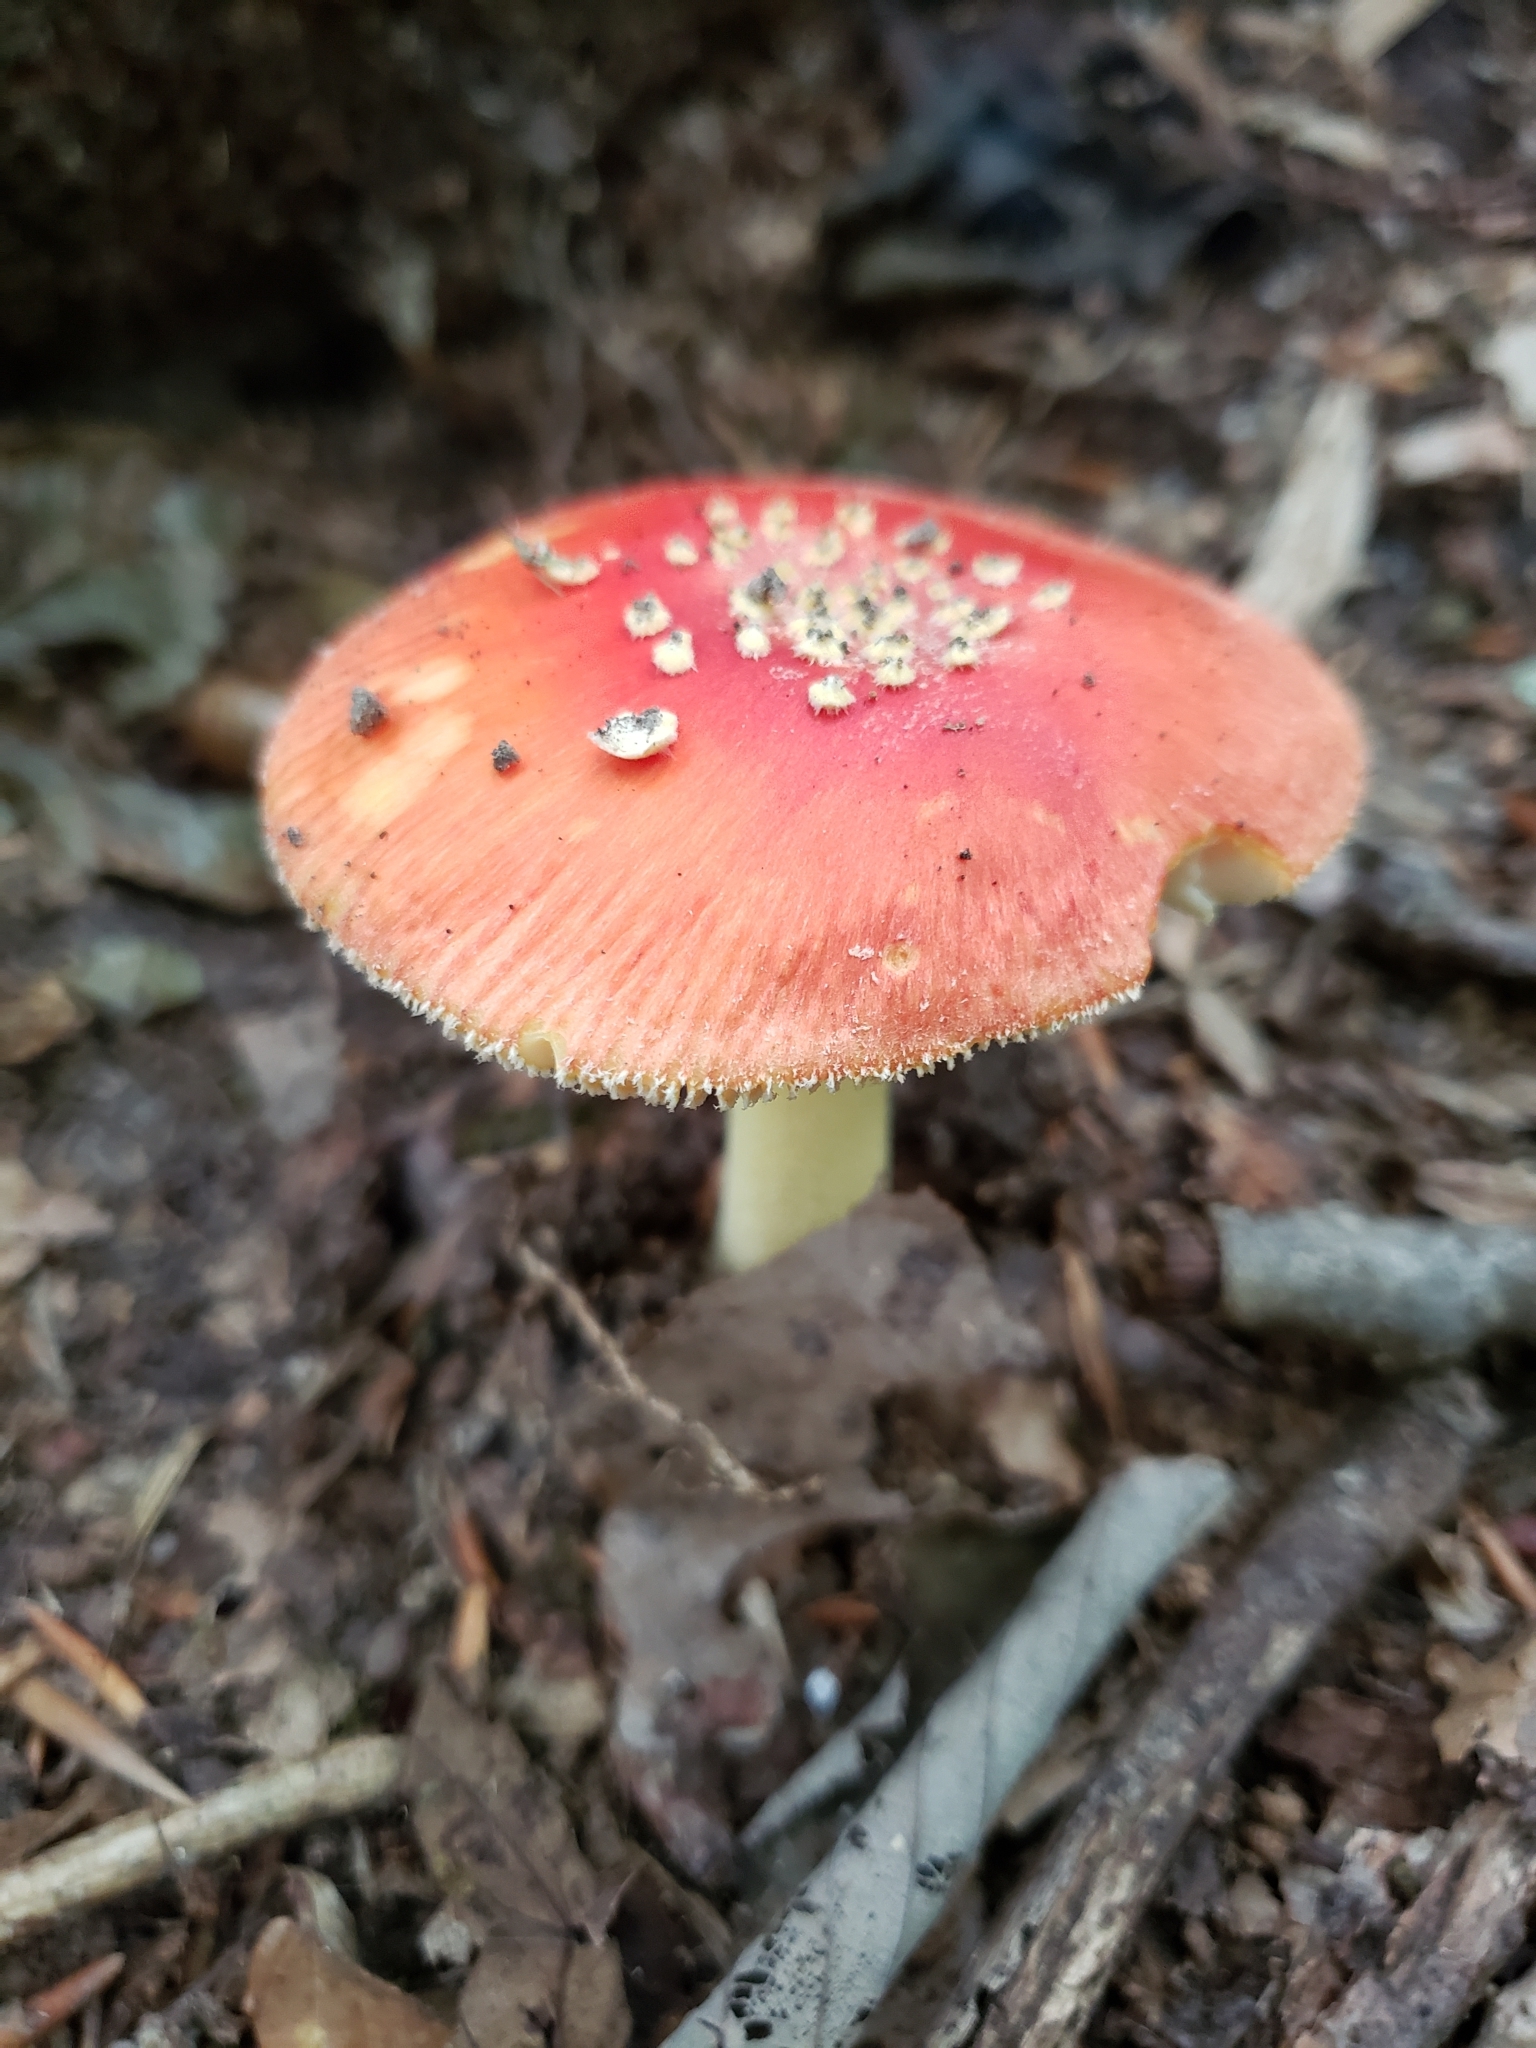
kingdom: Fungi
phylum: Basidiomycota
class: Agaricomycetes
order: Agaricales
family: Amanitaceae
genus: Amanita
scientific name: Amanita parcivolvata
